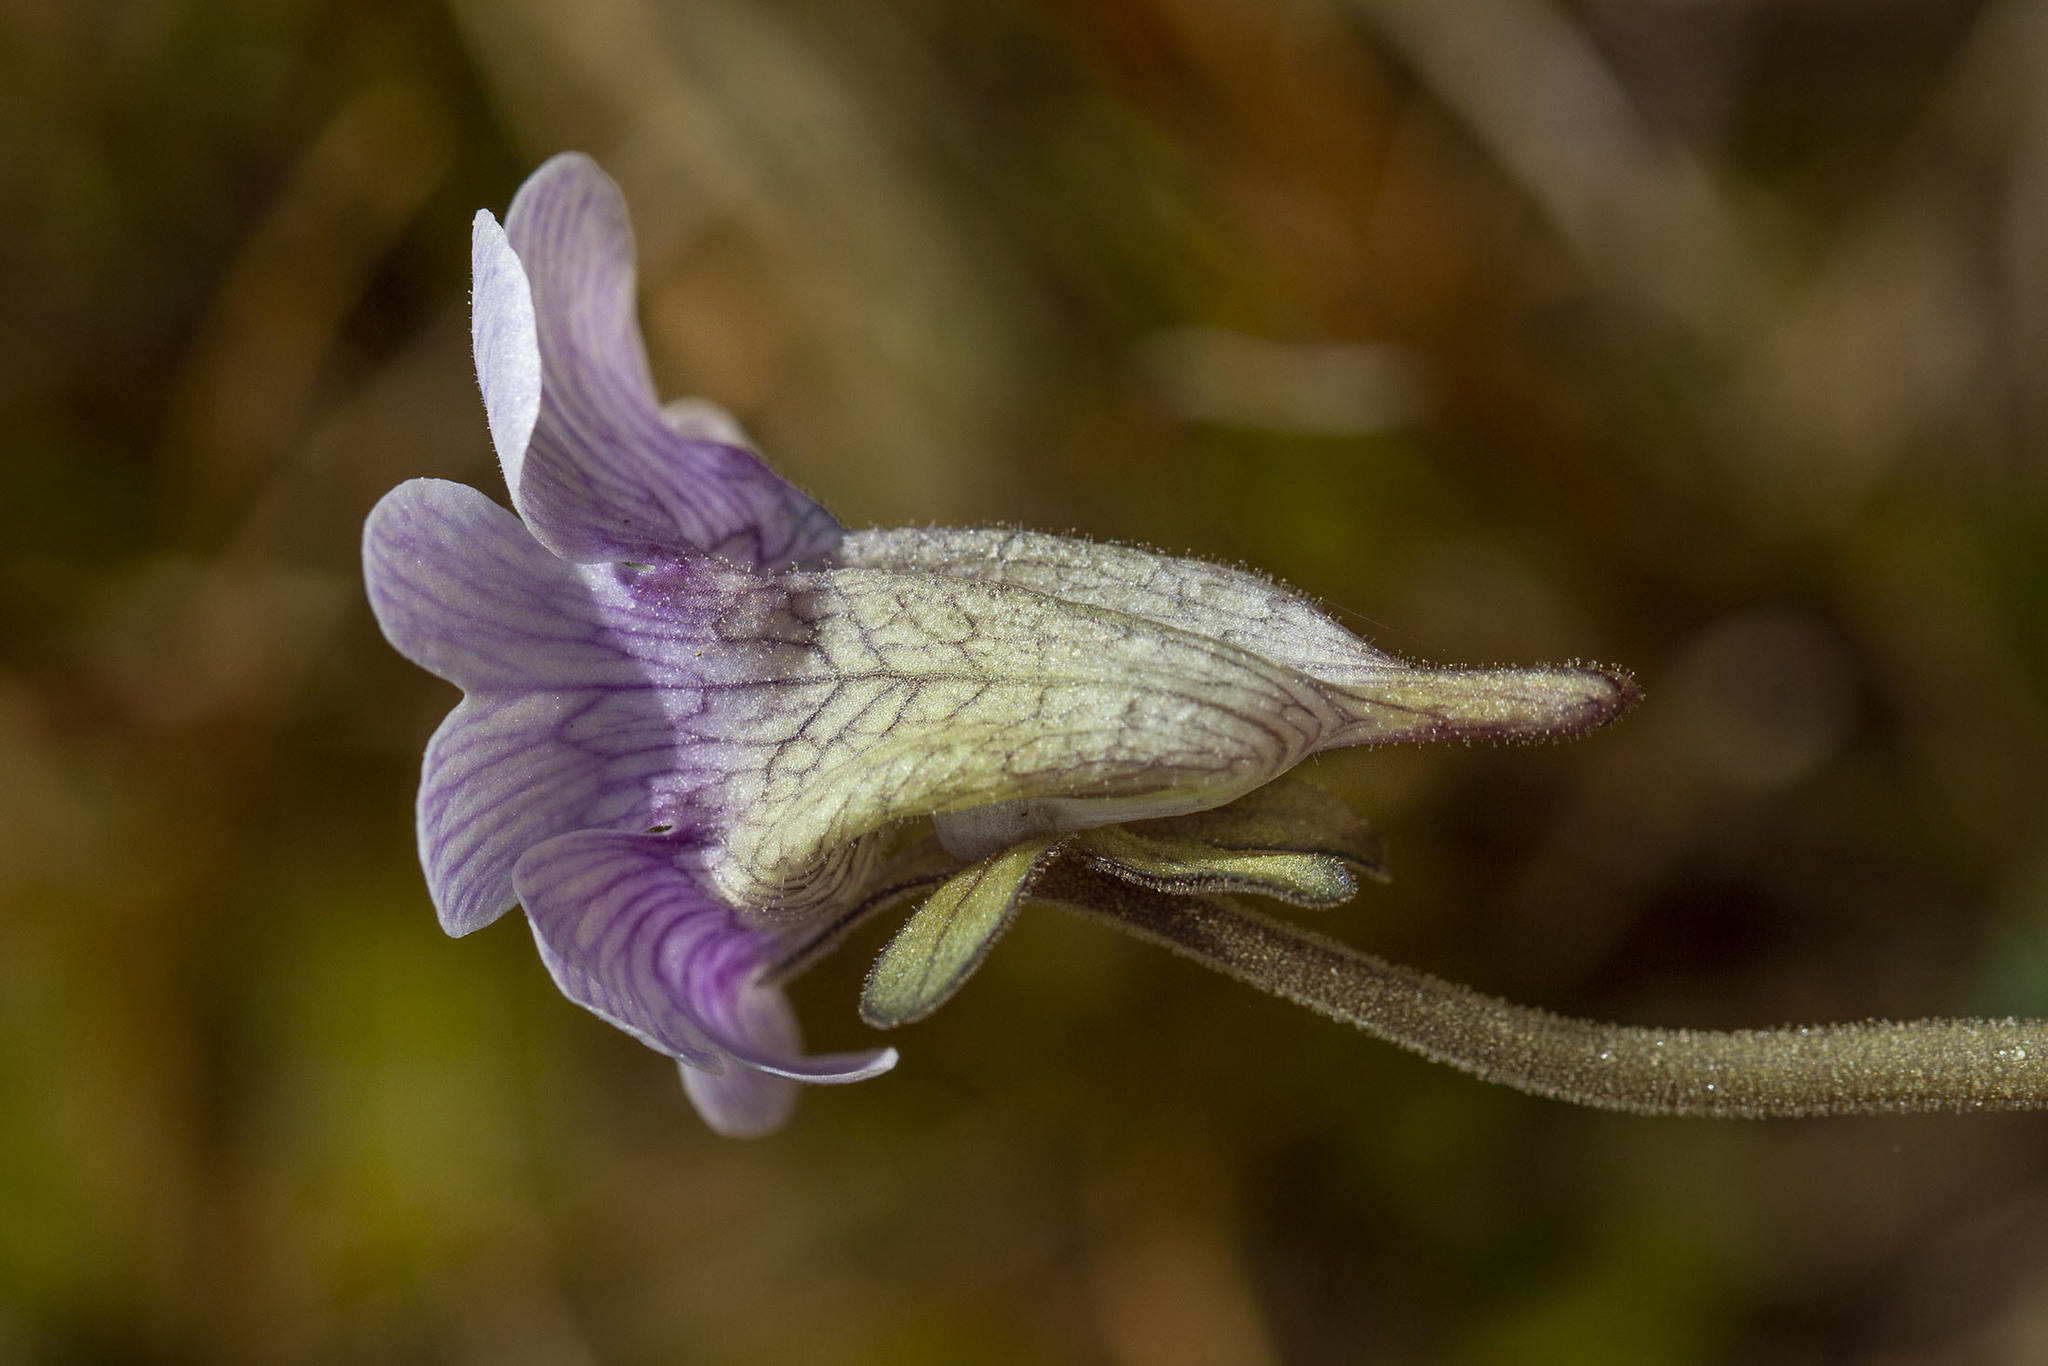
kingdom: Plantae
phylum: Tracheophyta
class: Magnoliopsida
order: Lamiales
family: Lentibulariaceae
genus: Pinguicula
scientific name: Pinguicula caerulea
